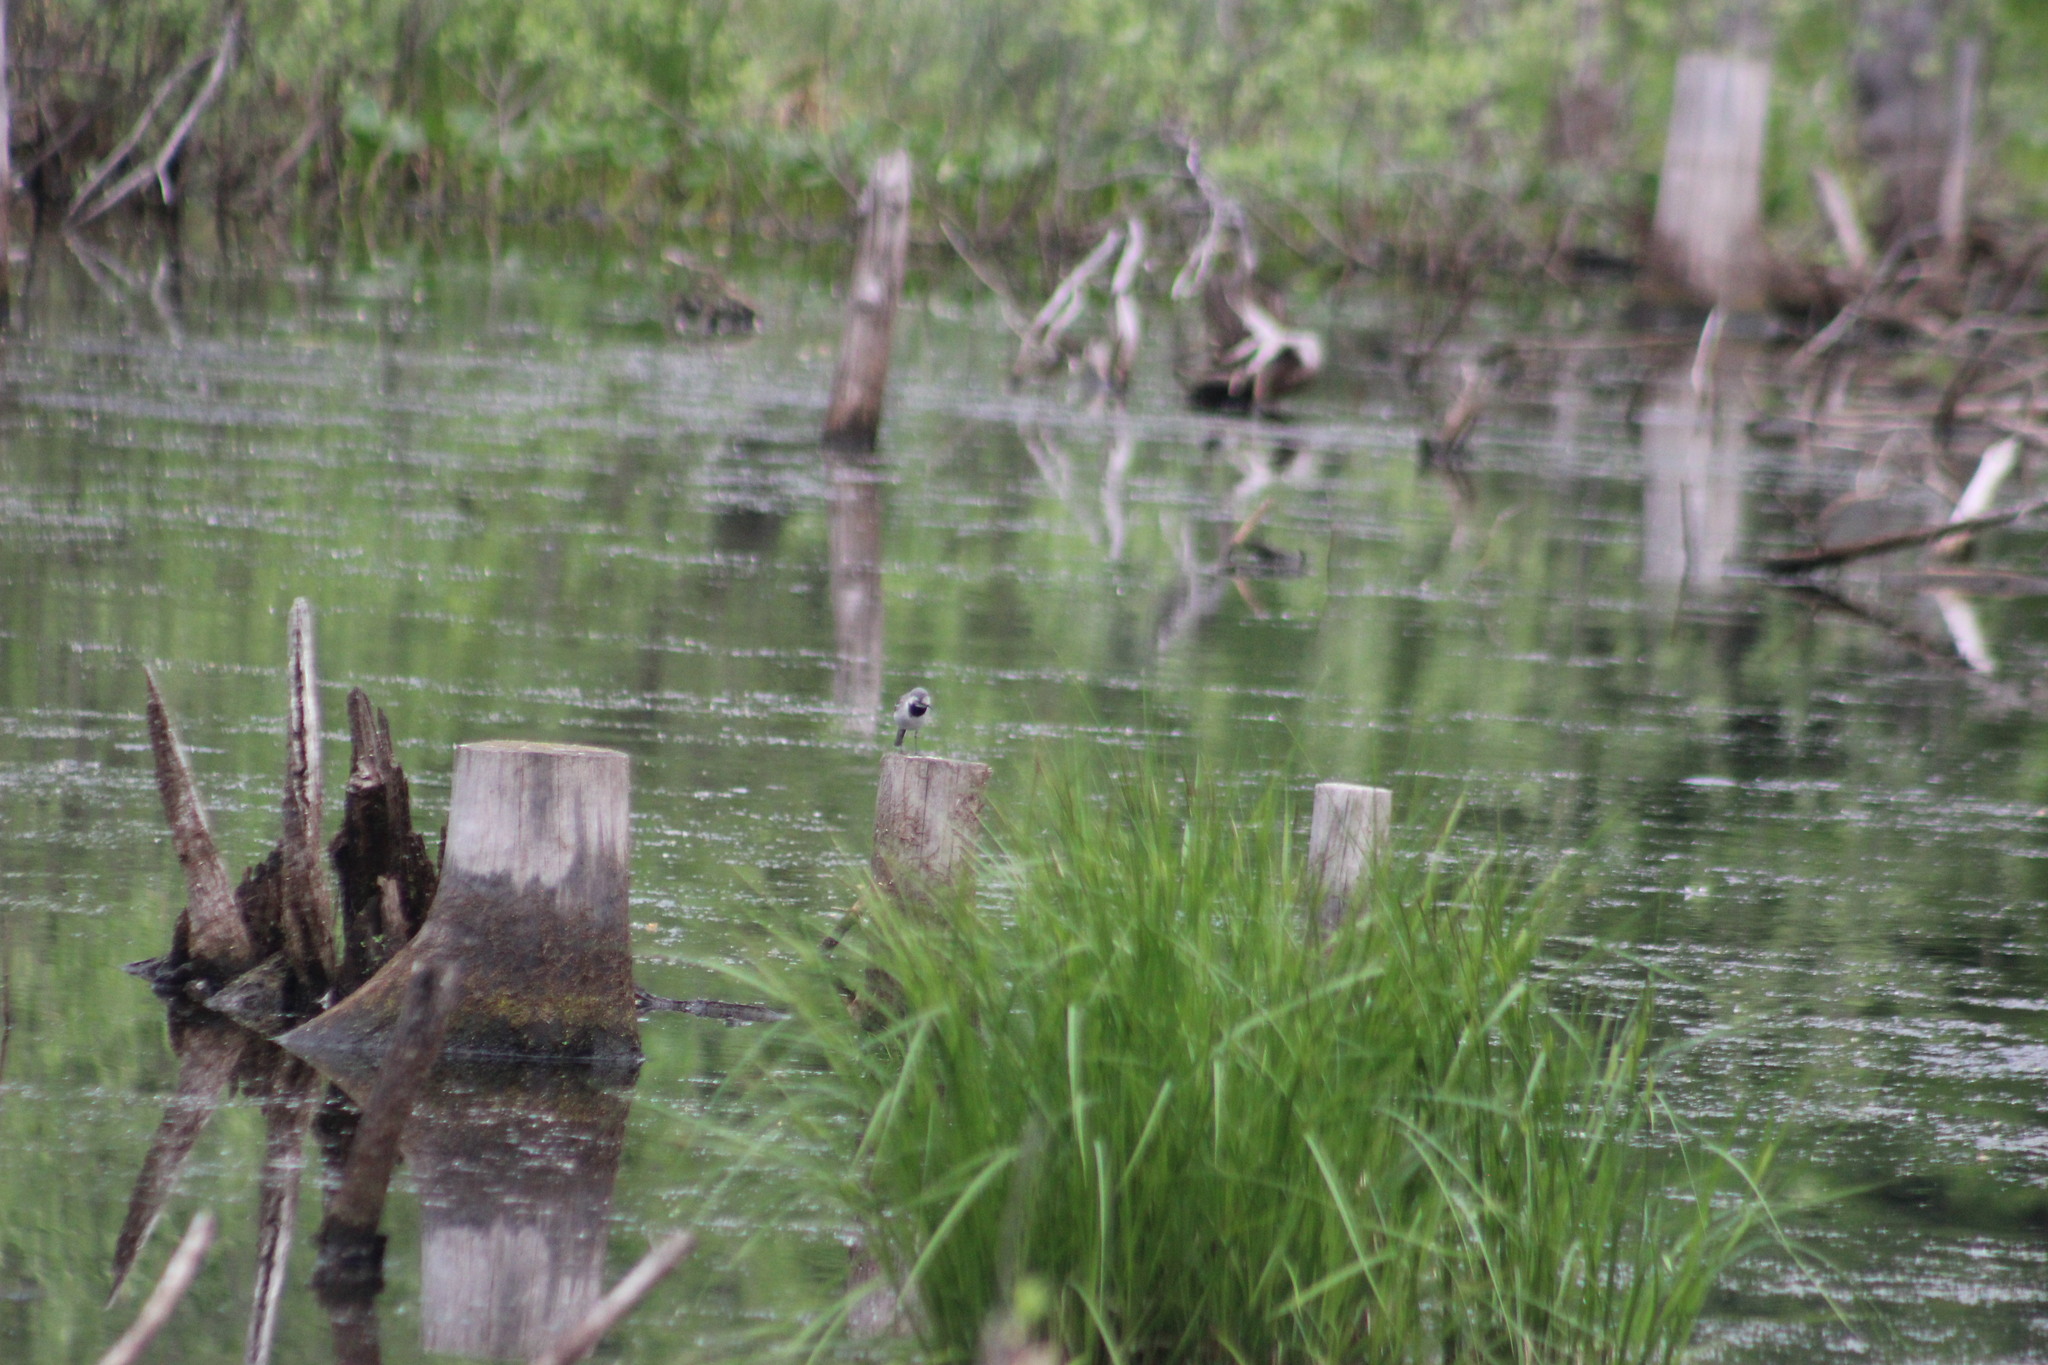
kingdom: Animalia
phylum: Chordata
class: Aves
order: Passeriformes
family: Motacillidae
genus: Motacilla
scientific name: Motacilla alba
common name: White wagtail
